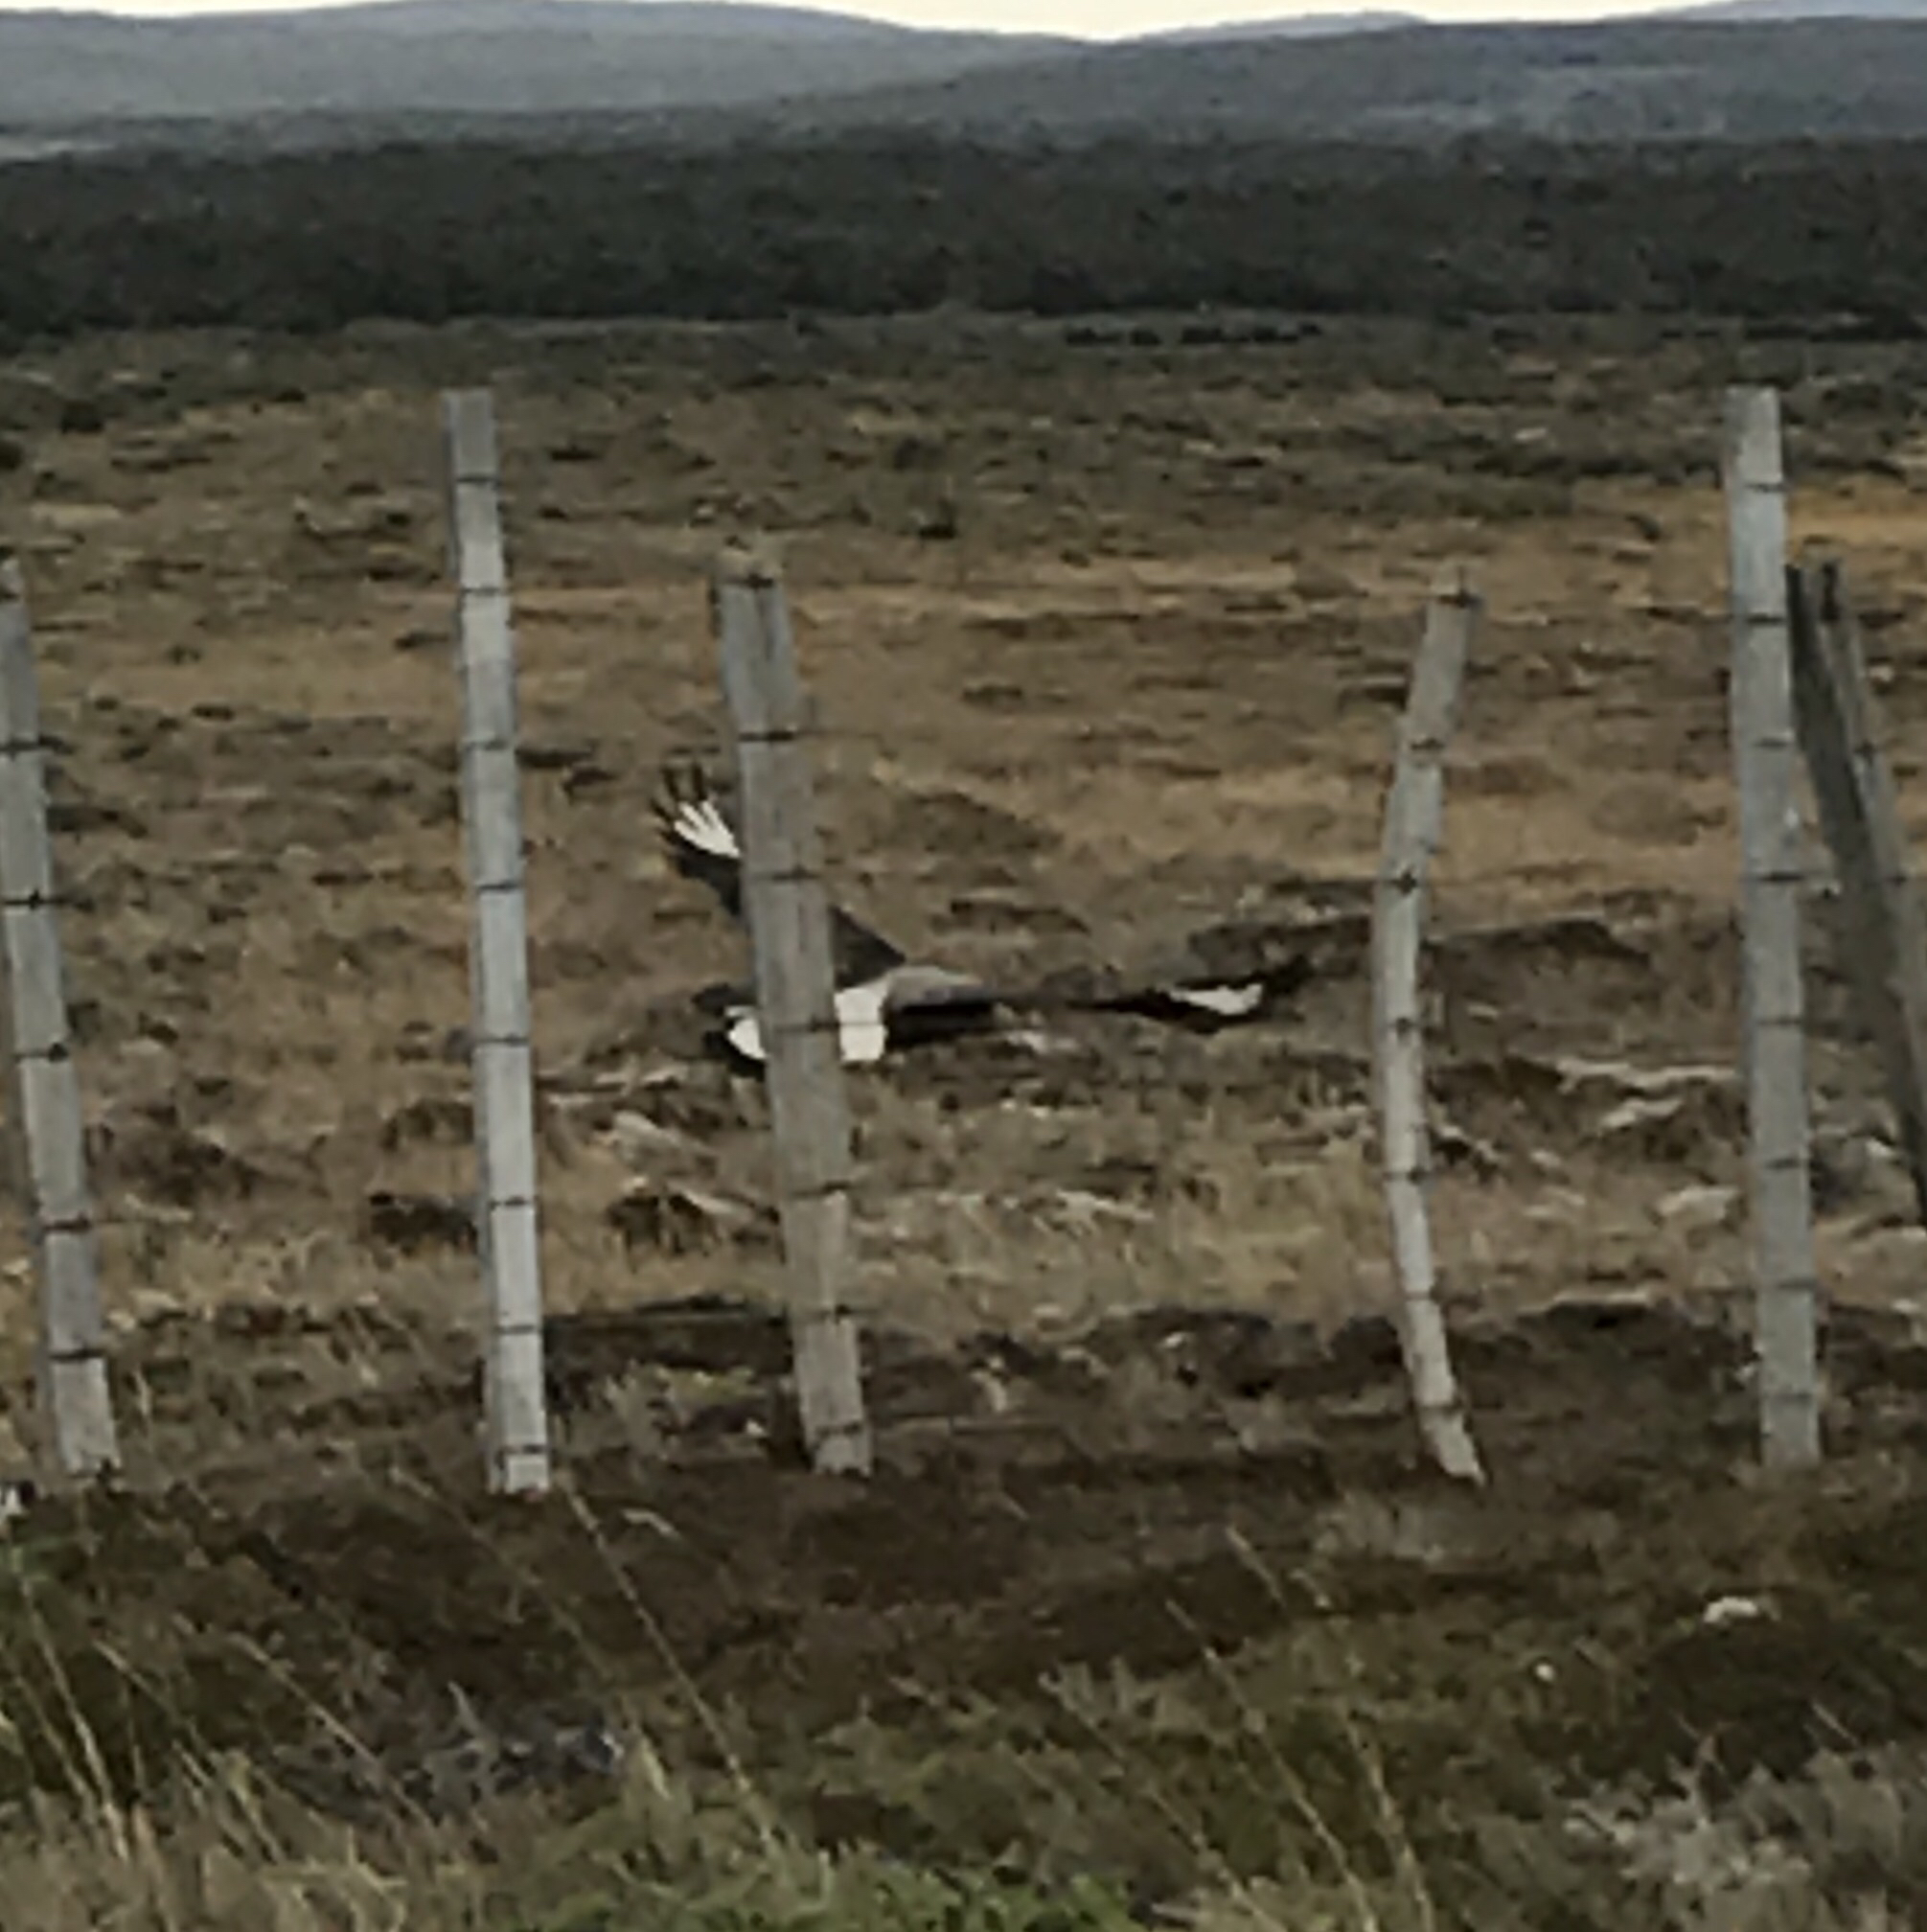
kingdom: Animalia
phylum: Chordata
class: Aves
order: Falconiformes
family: Falconidae
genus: Caracara
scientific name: Caracara plancus
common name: Southern caracara
